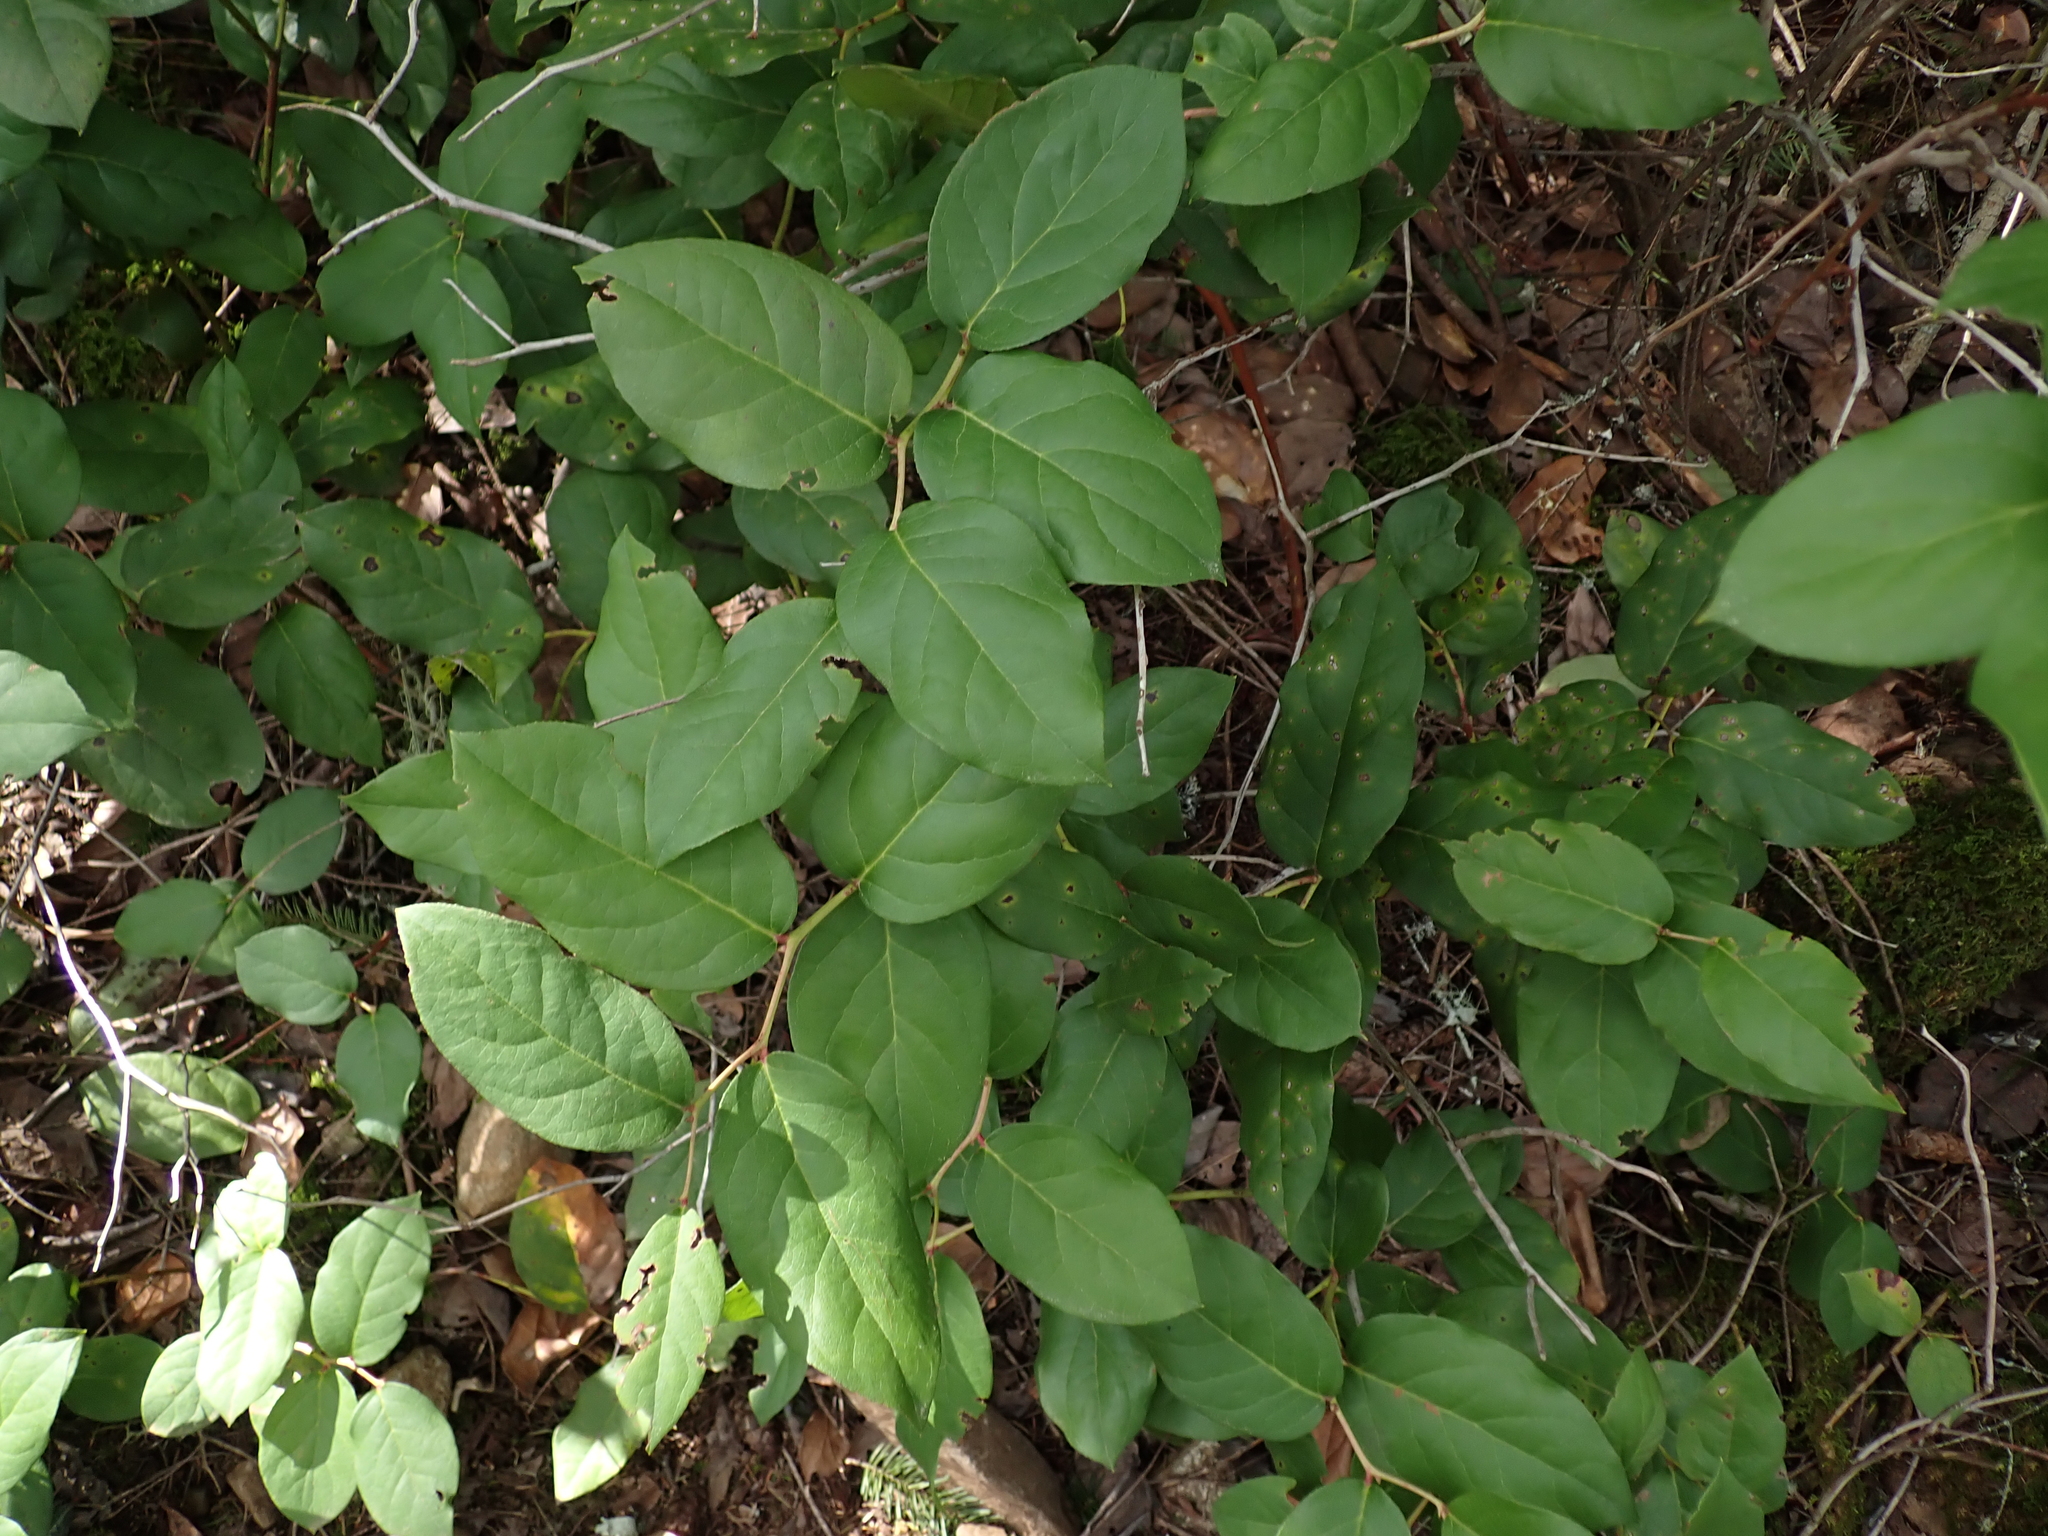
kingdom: Plantae
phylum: Tracheophyta
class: Magnoliopsida
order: Ericales
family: Ericaceae
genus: Gaultheria
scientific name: Gaultheria shallon
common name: Shallon
